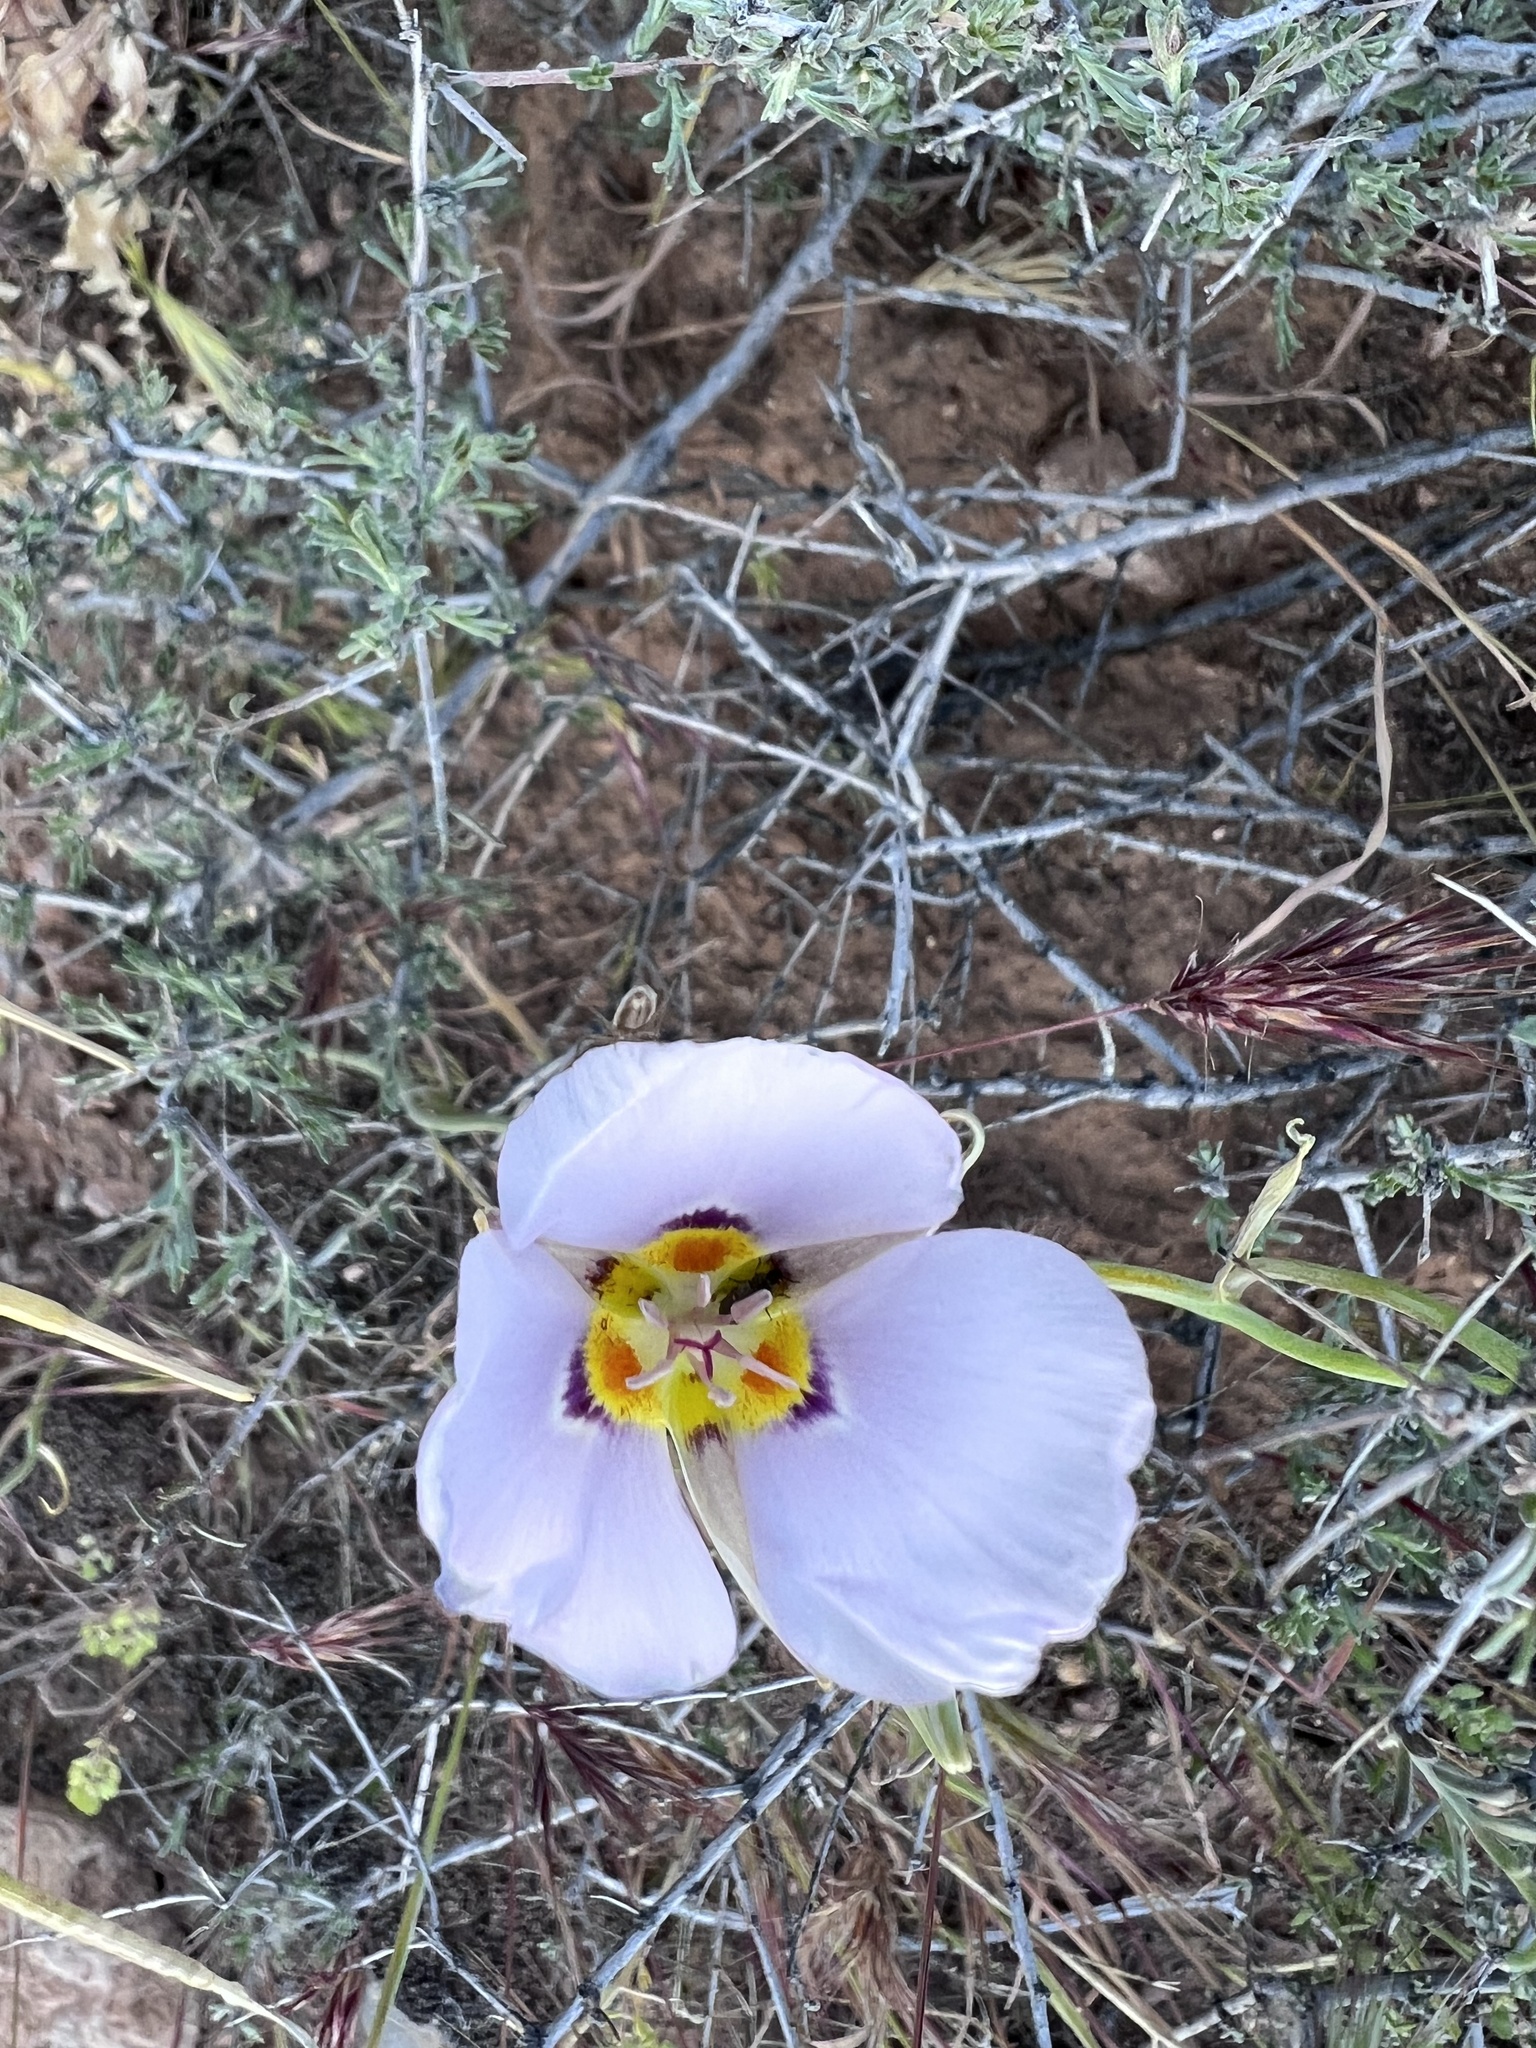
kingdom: Plantae
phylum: Tracheophyta
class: Liliopsida
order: Liliales
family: Liliaceae
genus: Calochortus
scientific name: Calochortus flexuosus
